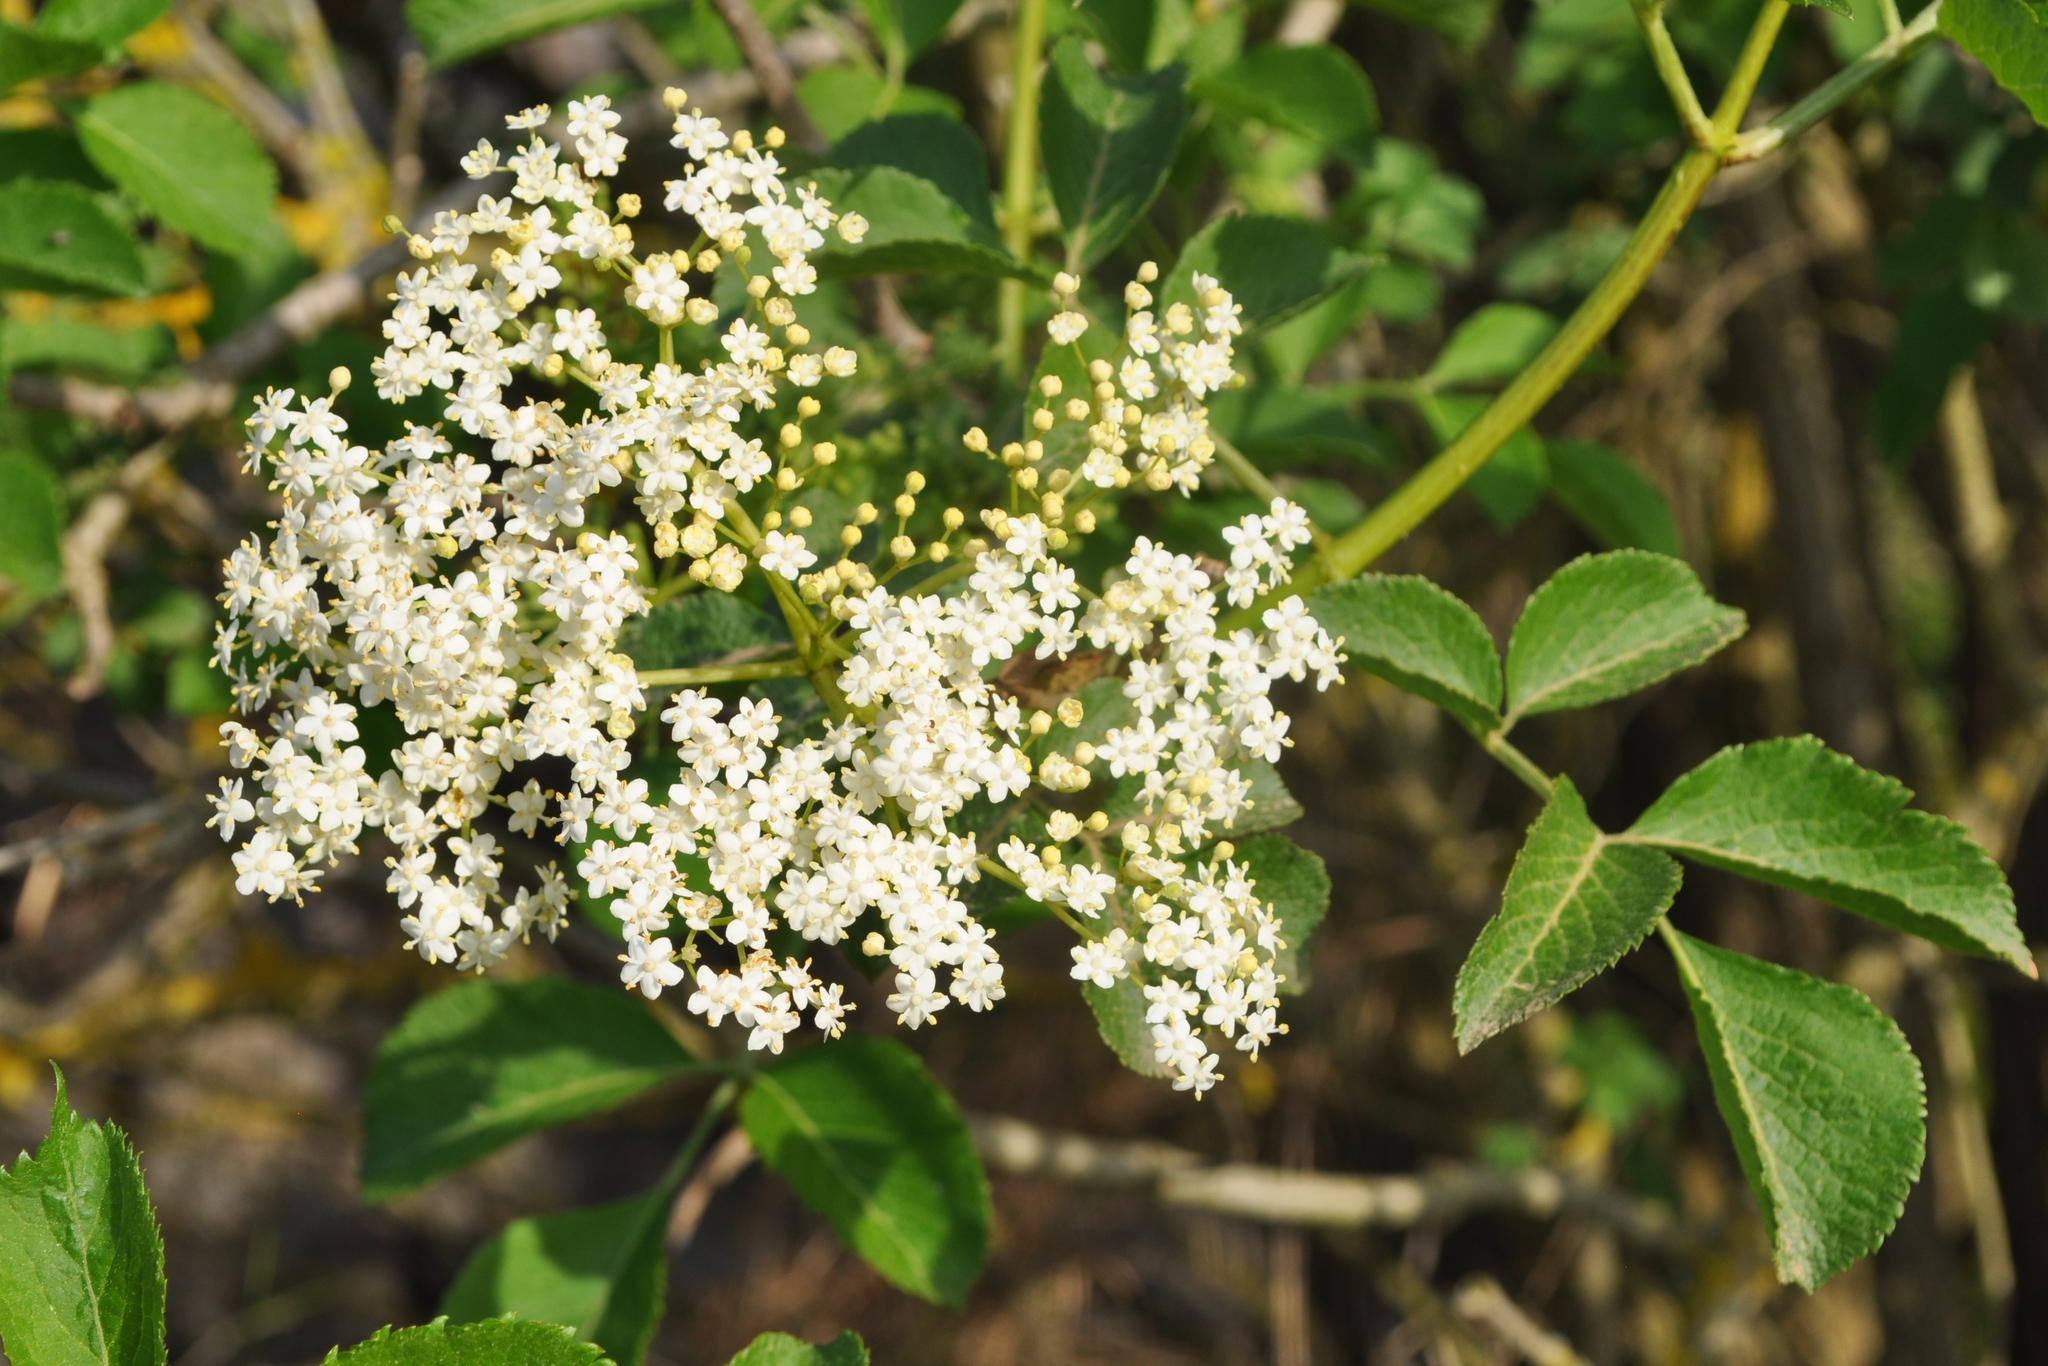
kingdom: Plantae
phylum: Tracheophyta
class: Magnoliopsida
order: Dipsacales
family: Viburnaceae
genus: Sambucus
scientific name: Sambucus nigra
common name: Elder
